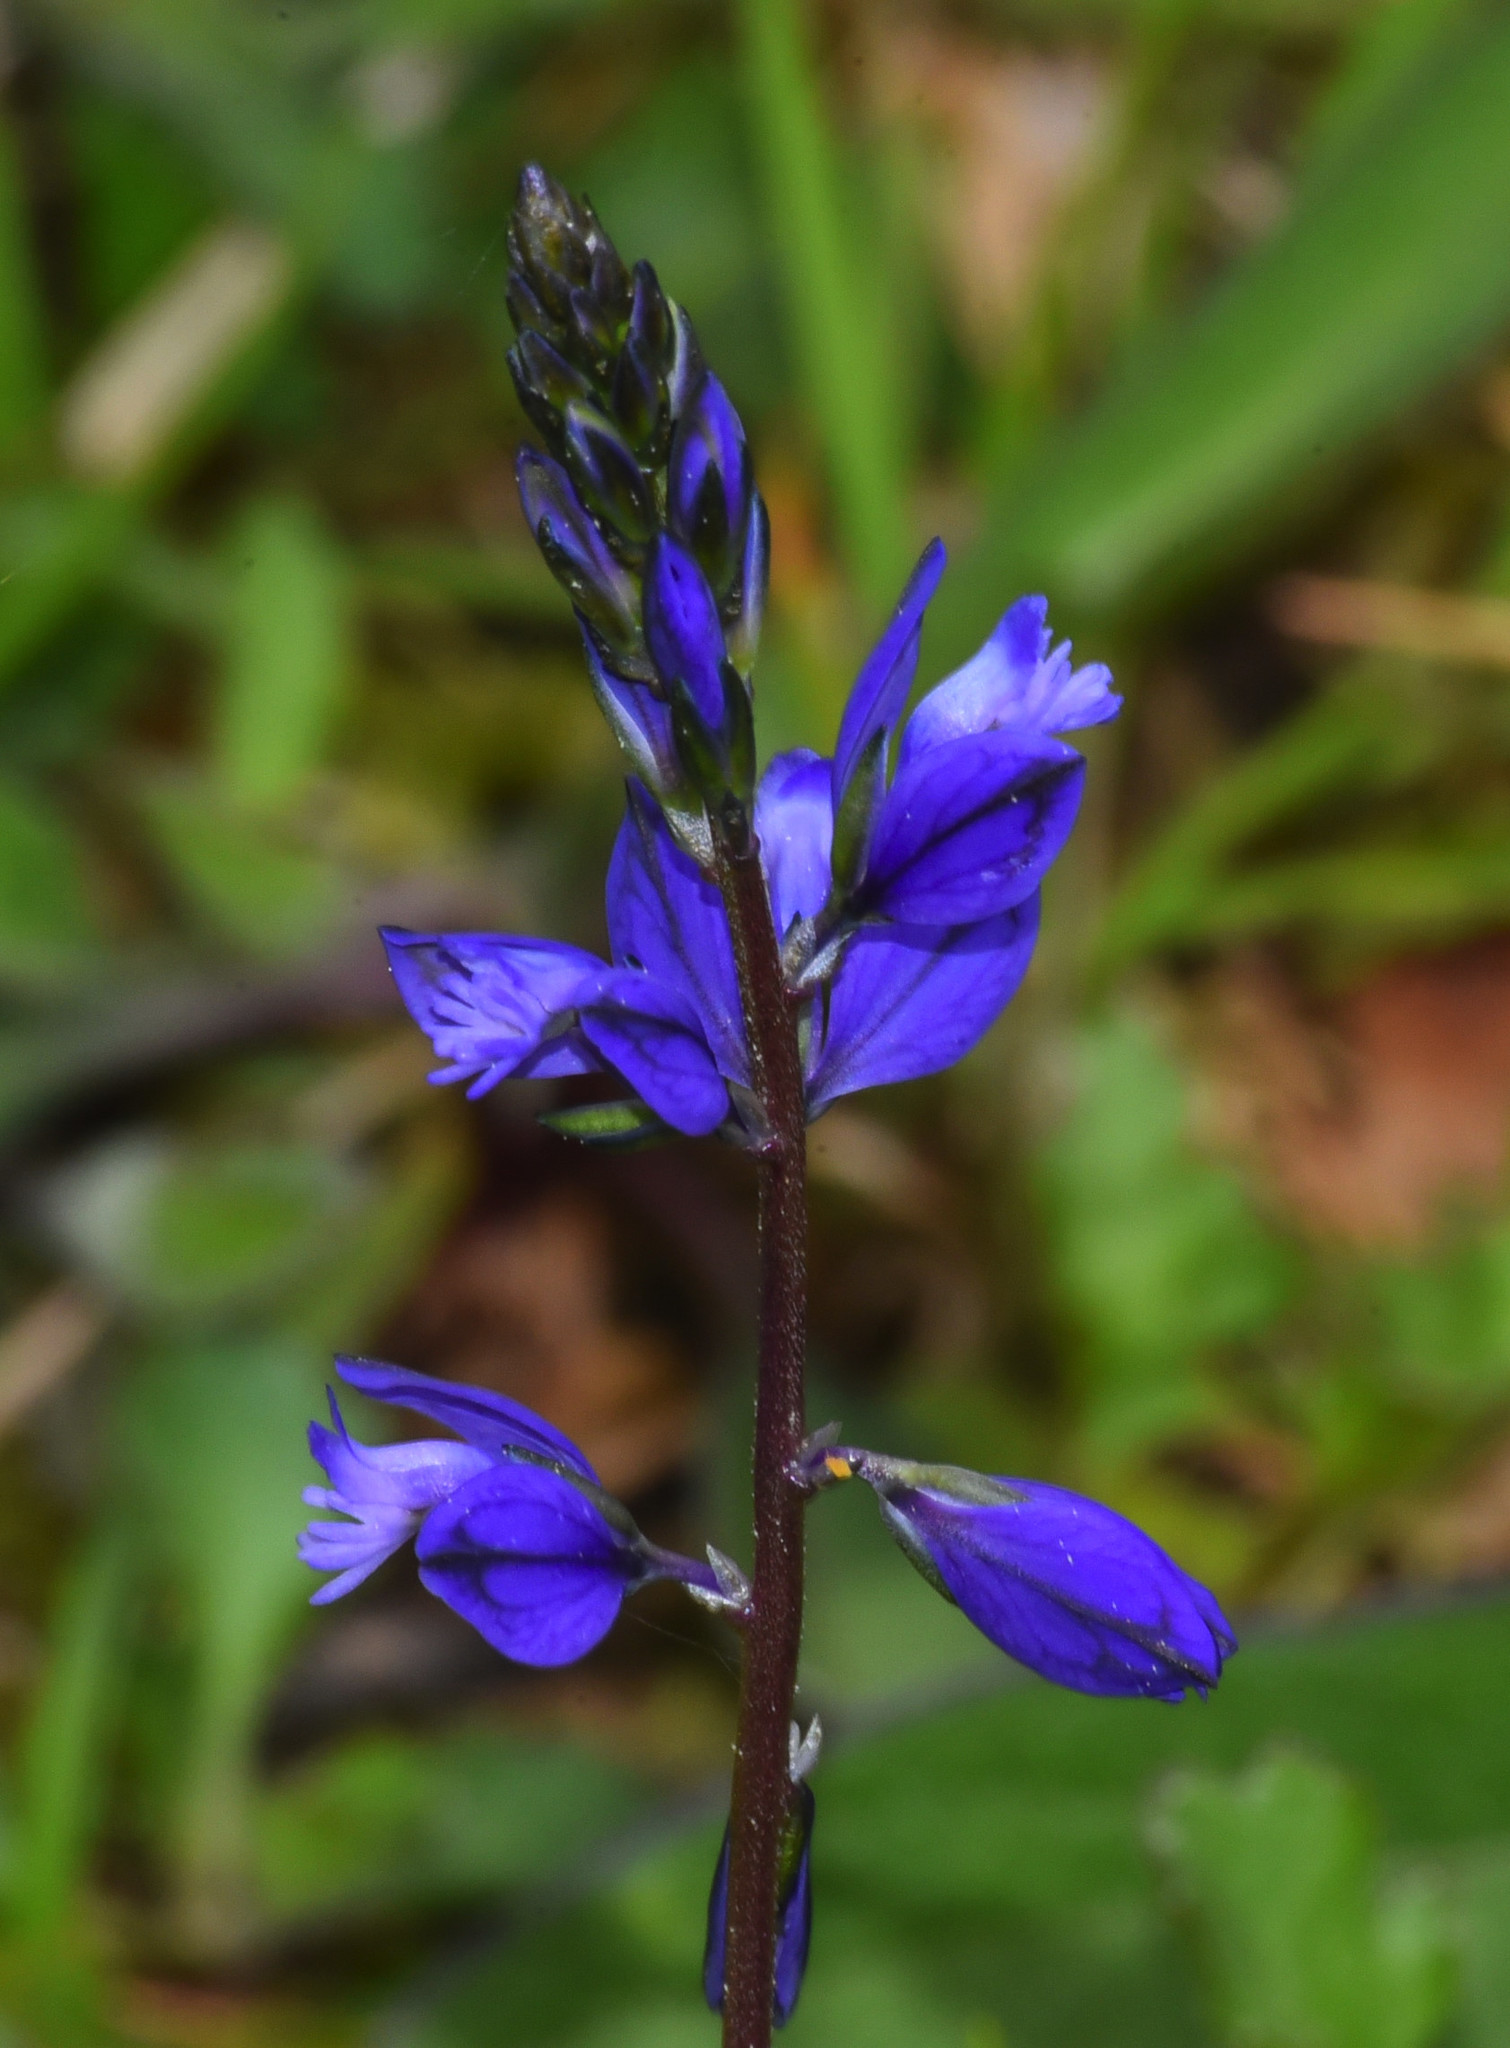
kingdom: Plantae
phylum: Tracheophyta
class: Magnoliopsida
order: Fabales
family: Polygalaceae
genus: Polygala
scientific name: Polygala vulgaris
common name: Common milkwort
